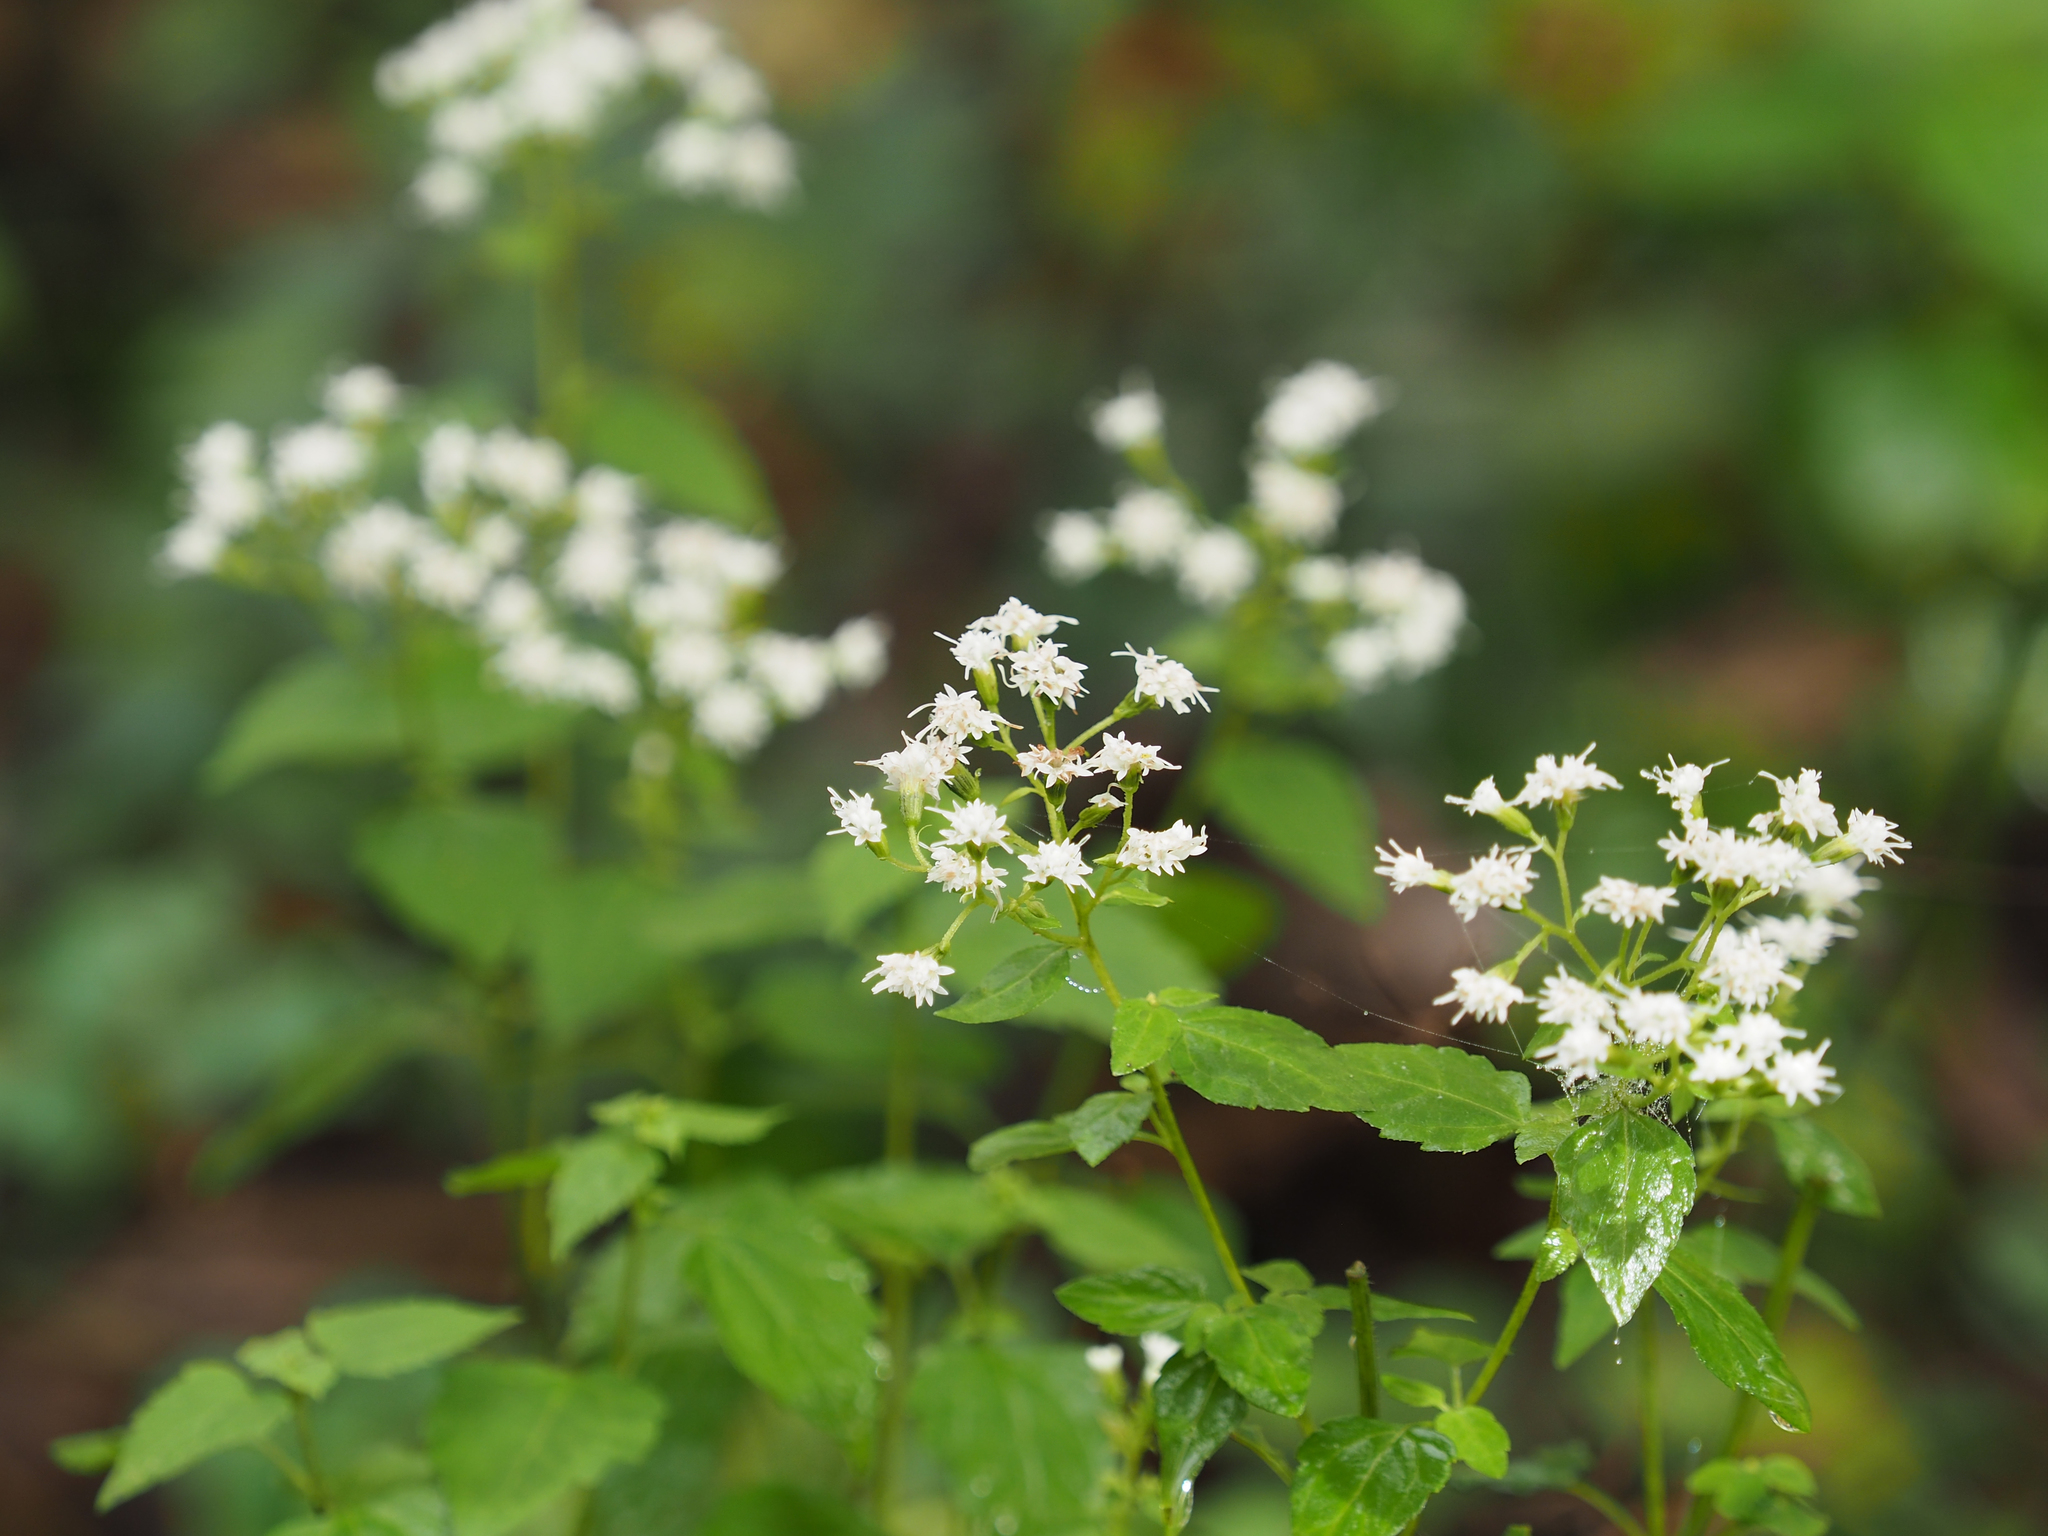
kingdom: Plantae
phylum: Tracheophyta
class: Magnoliopsida
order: Asterales
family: Asteraceae
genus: Ageratina
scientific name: Ageratina altissima
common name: White snakeroot
